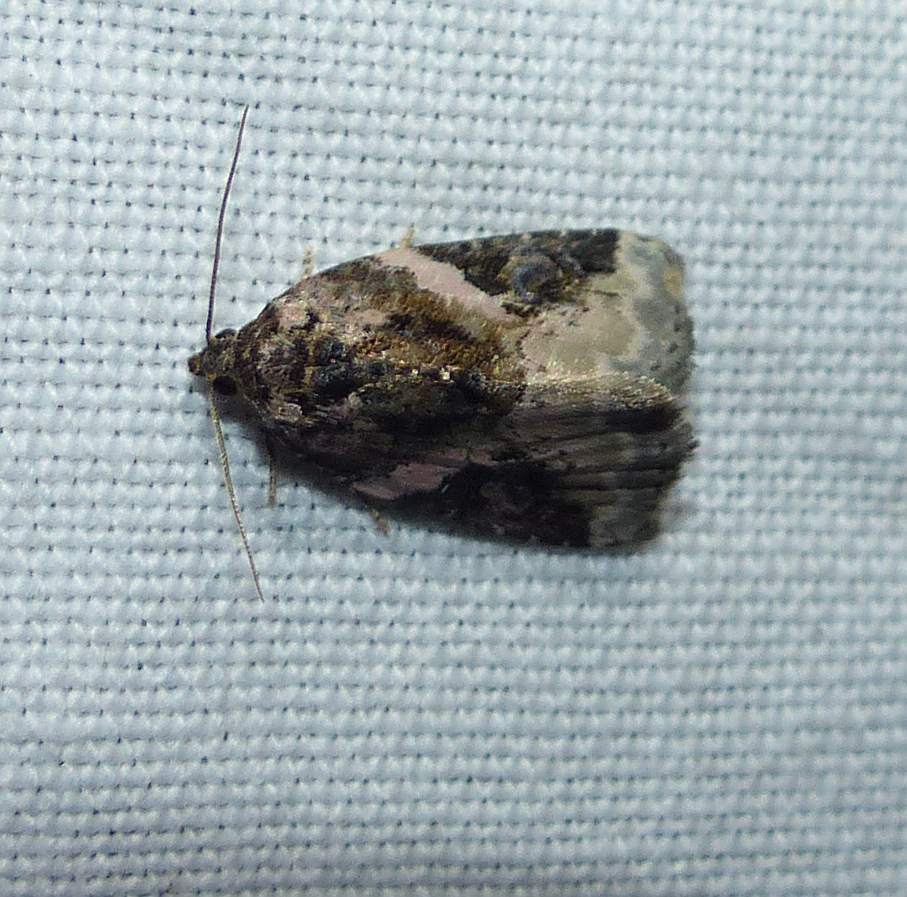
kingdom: Animalia
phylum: Arthropoda
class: Insecta
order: Lepidoptera
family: Noctuidae
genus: Pseudeustrotia
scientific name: Pseudeustrotia carneola
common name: Pink-barred lithacodia moth
